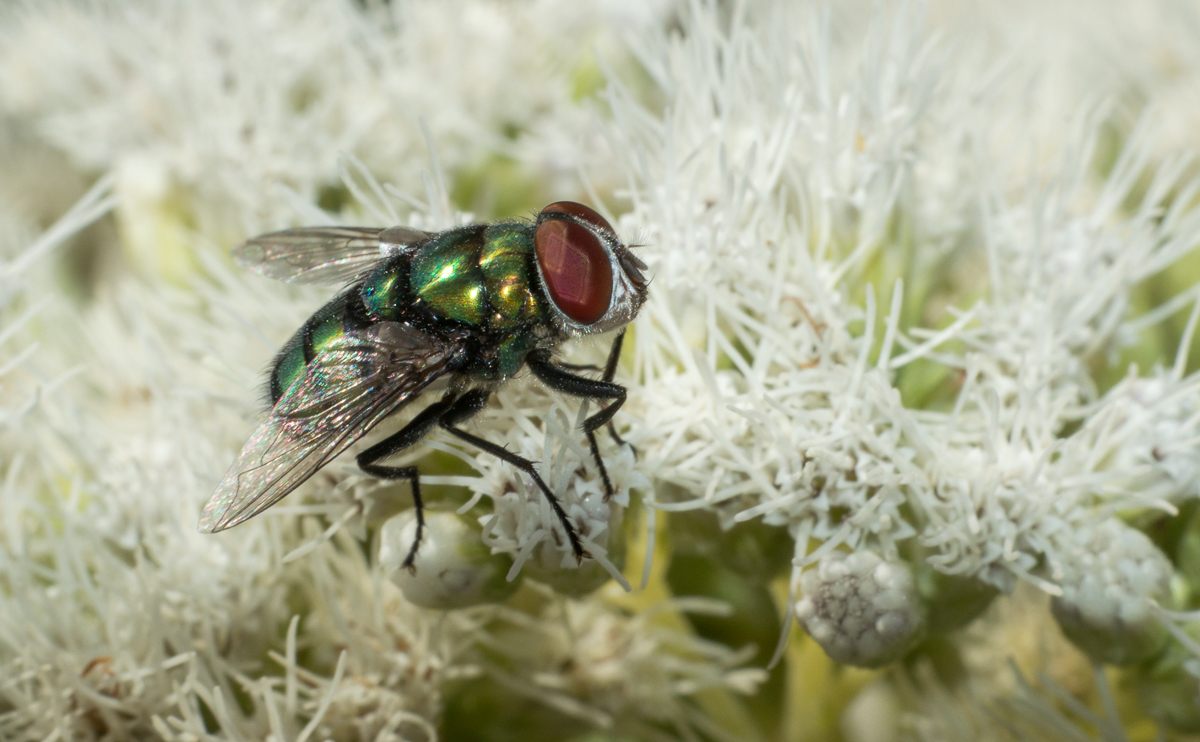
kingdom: Animalia
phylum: Arthropoda
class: Insecta
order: Diptera
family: Calliphoridae
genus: Chrysomya
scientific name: Chrysomya
